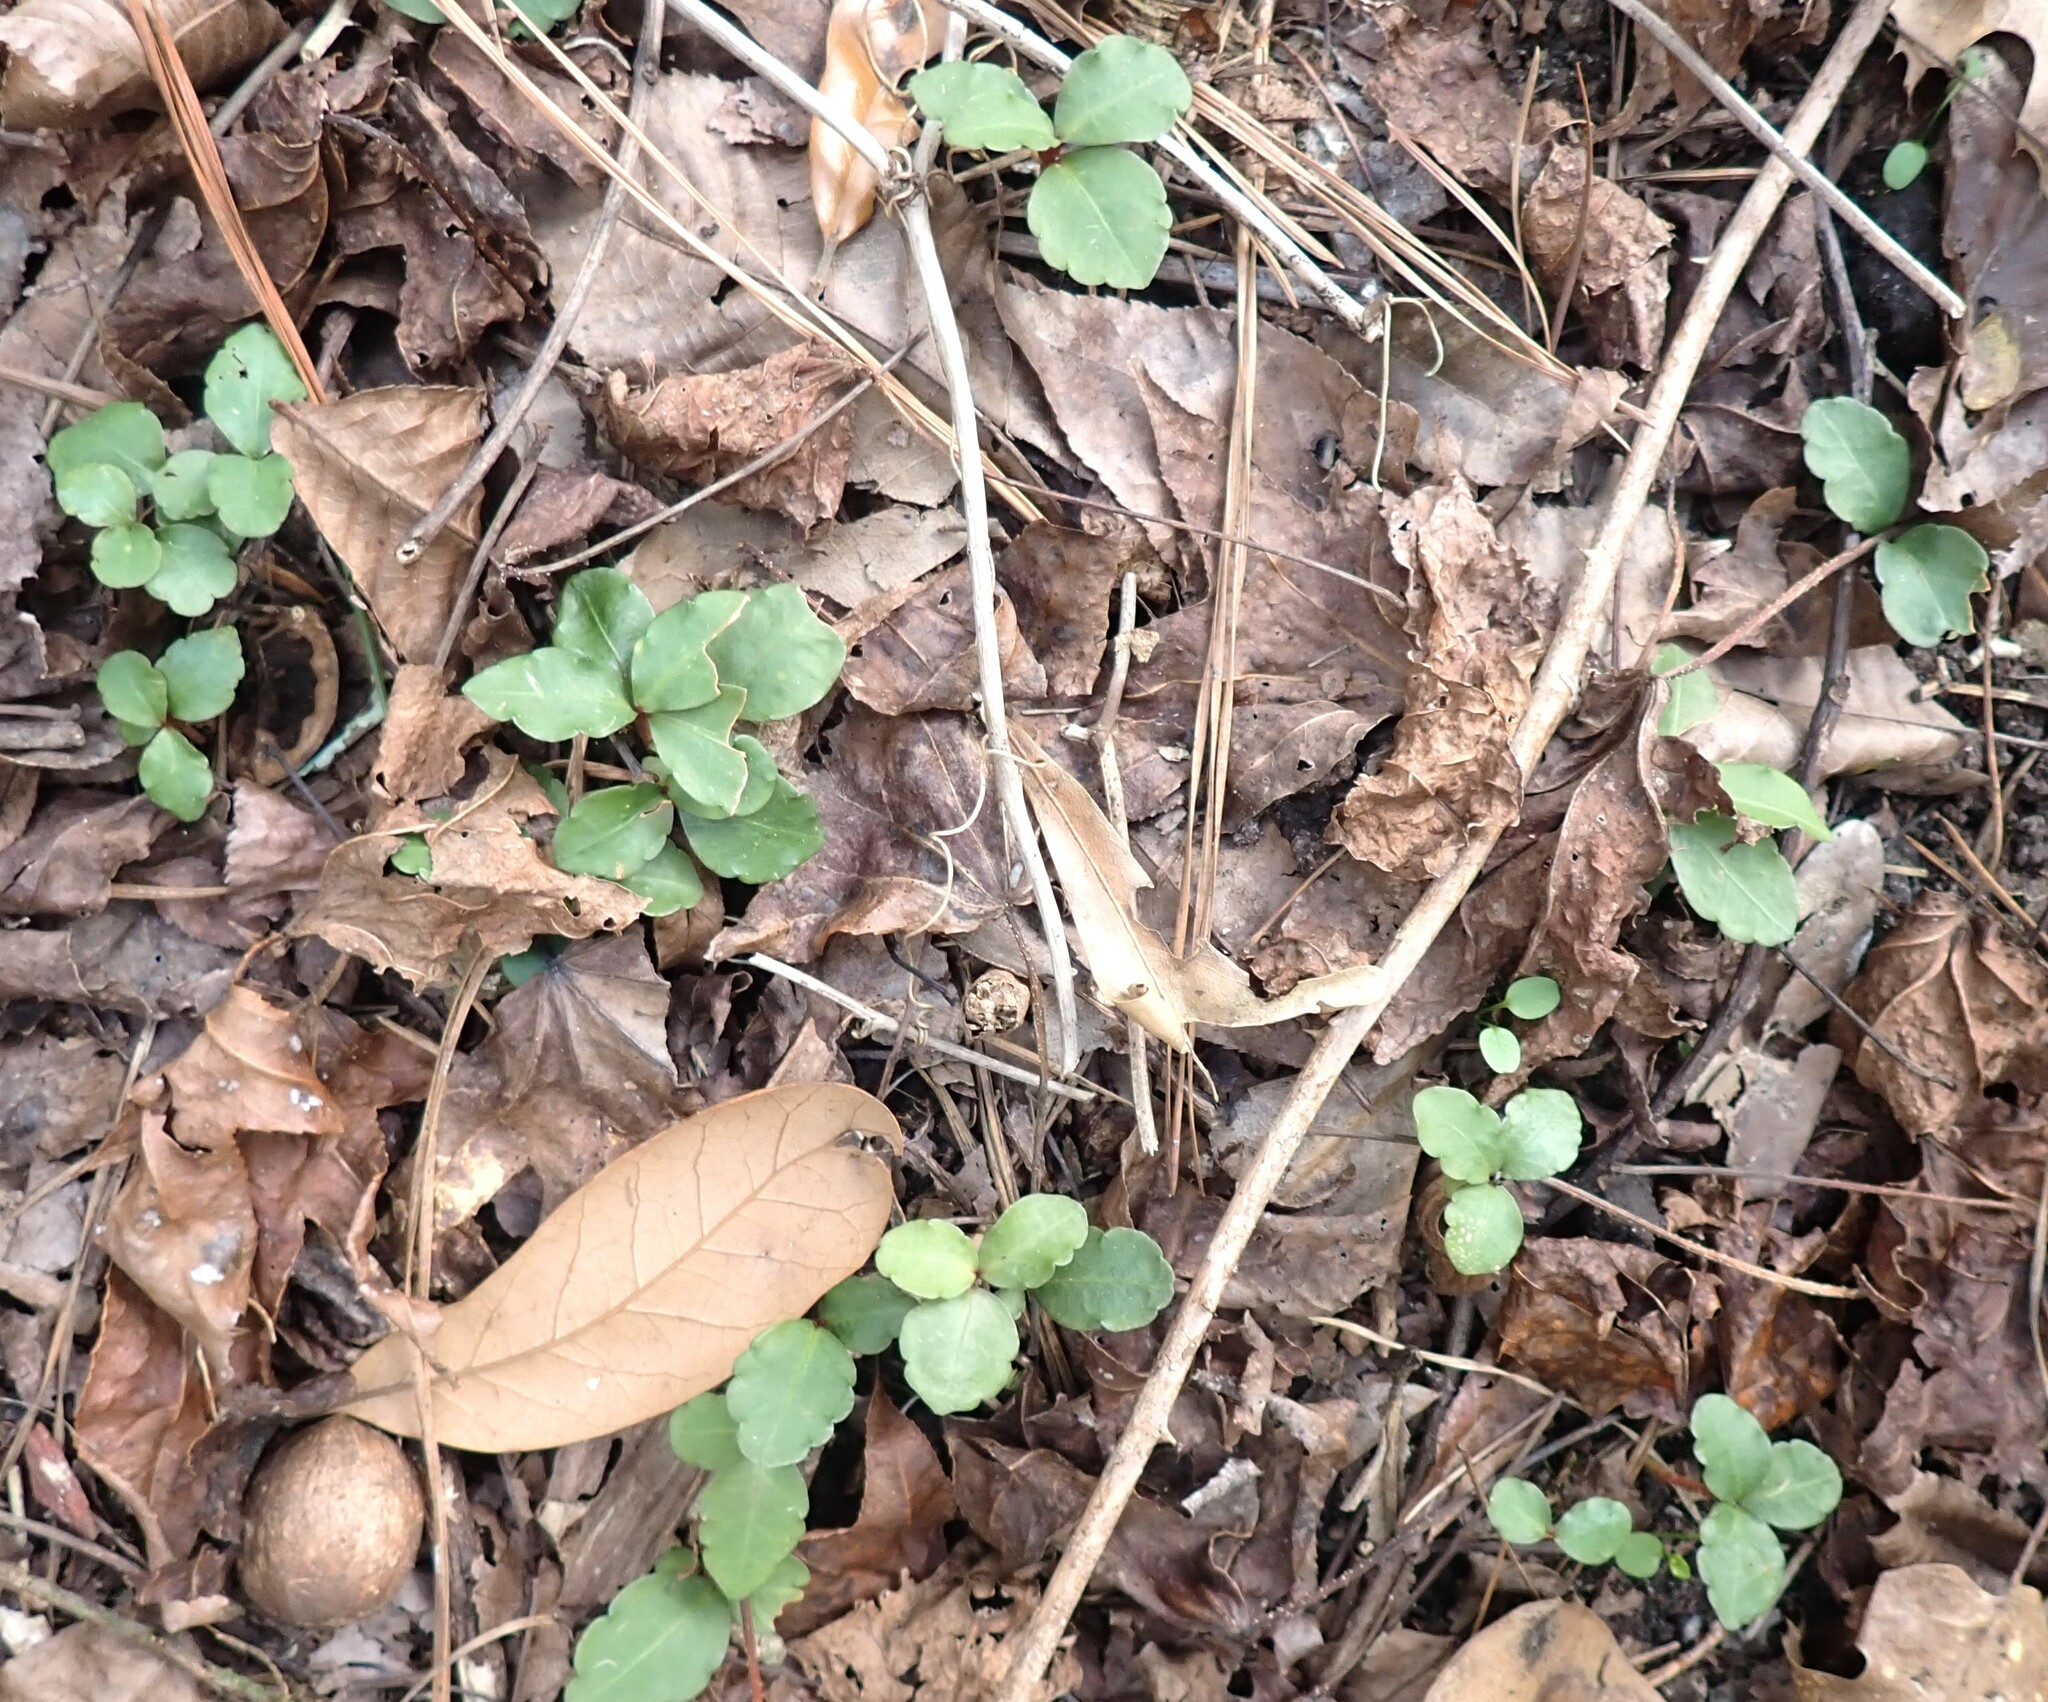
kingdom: Plantae
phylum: Tracheophyta
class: Magnoliopsida
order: Ericales
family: Primulaceae
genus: Ardisia
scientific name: Ardisia crenata
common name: Hen's eyes
